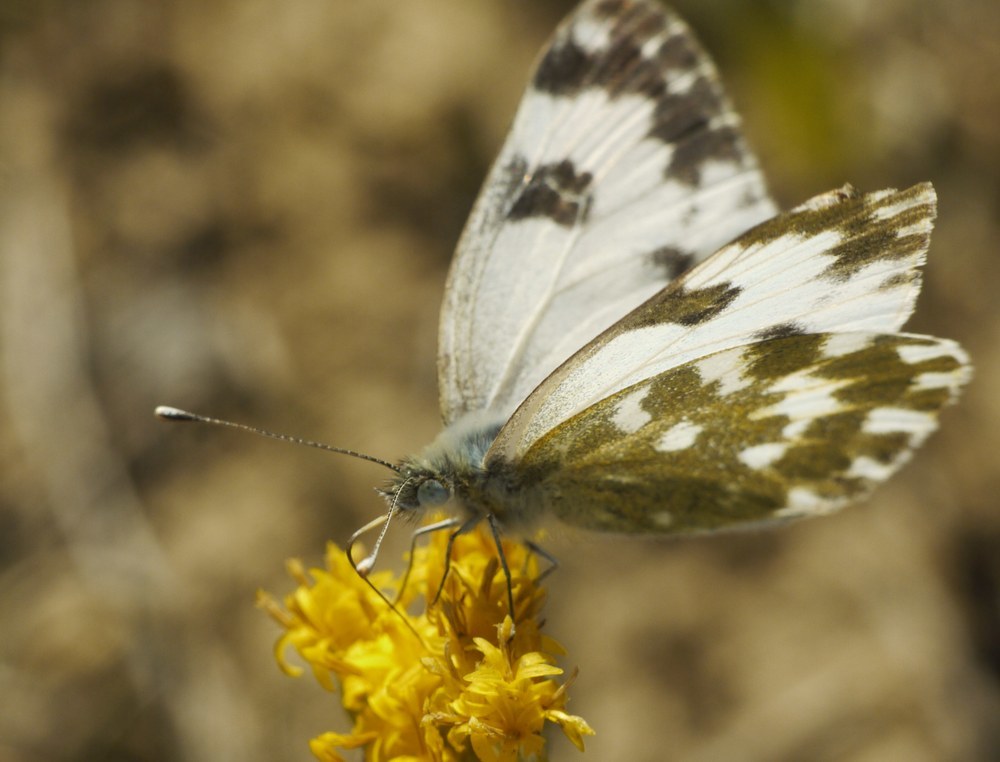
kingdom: Animalia
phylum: Arthropoda
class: Insecta
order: Lepidoptera
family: Pieridae
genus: Pontia
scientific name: Pontia edusa
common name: Eastern bath white
